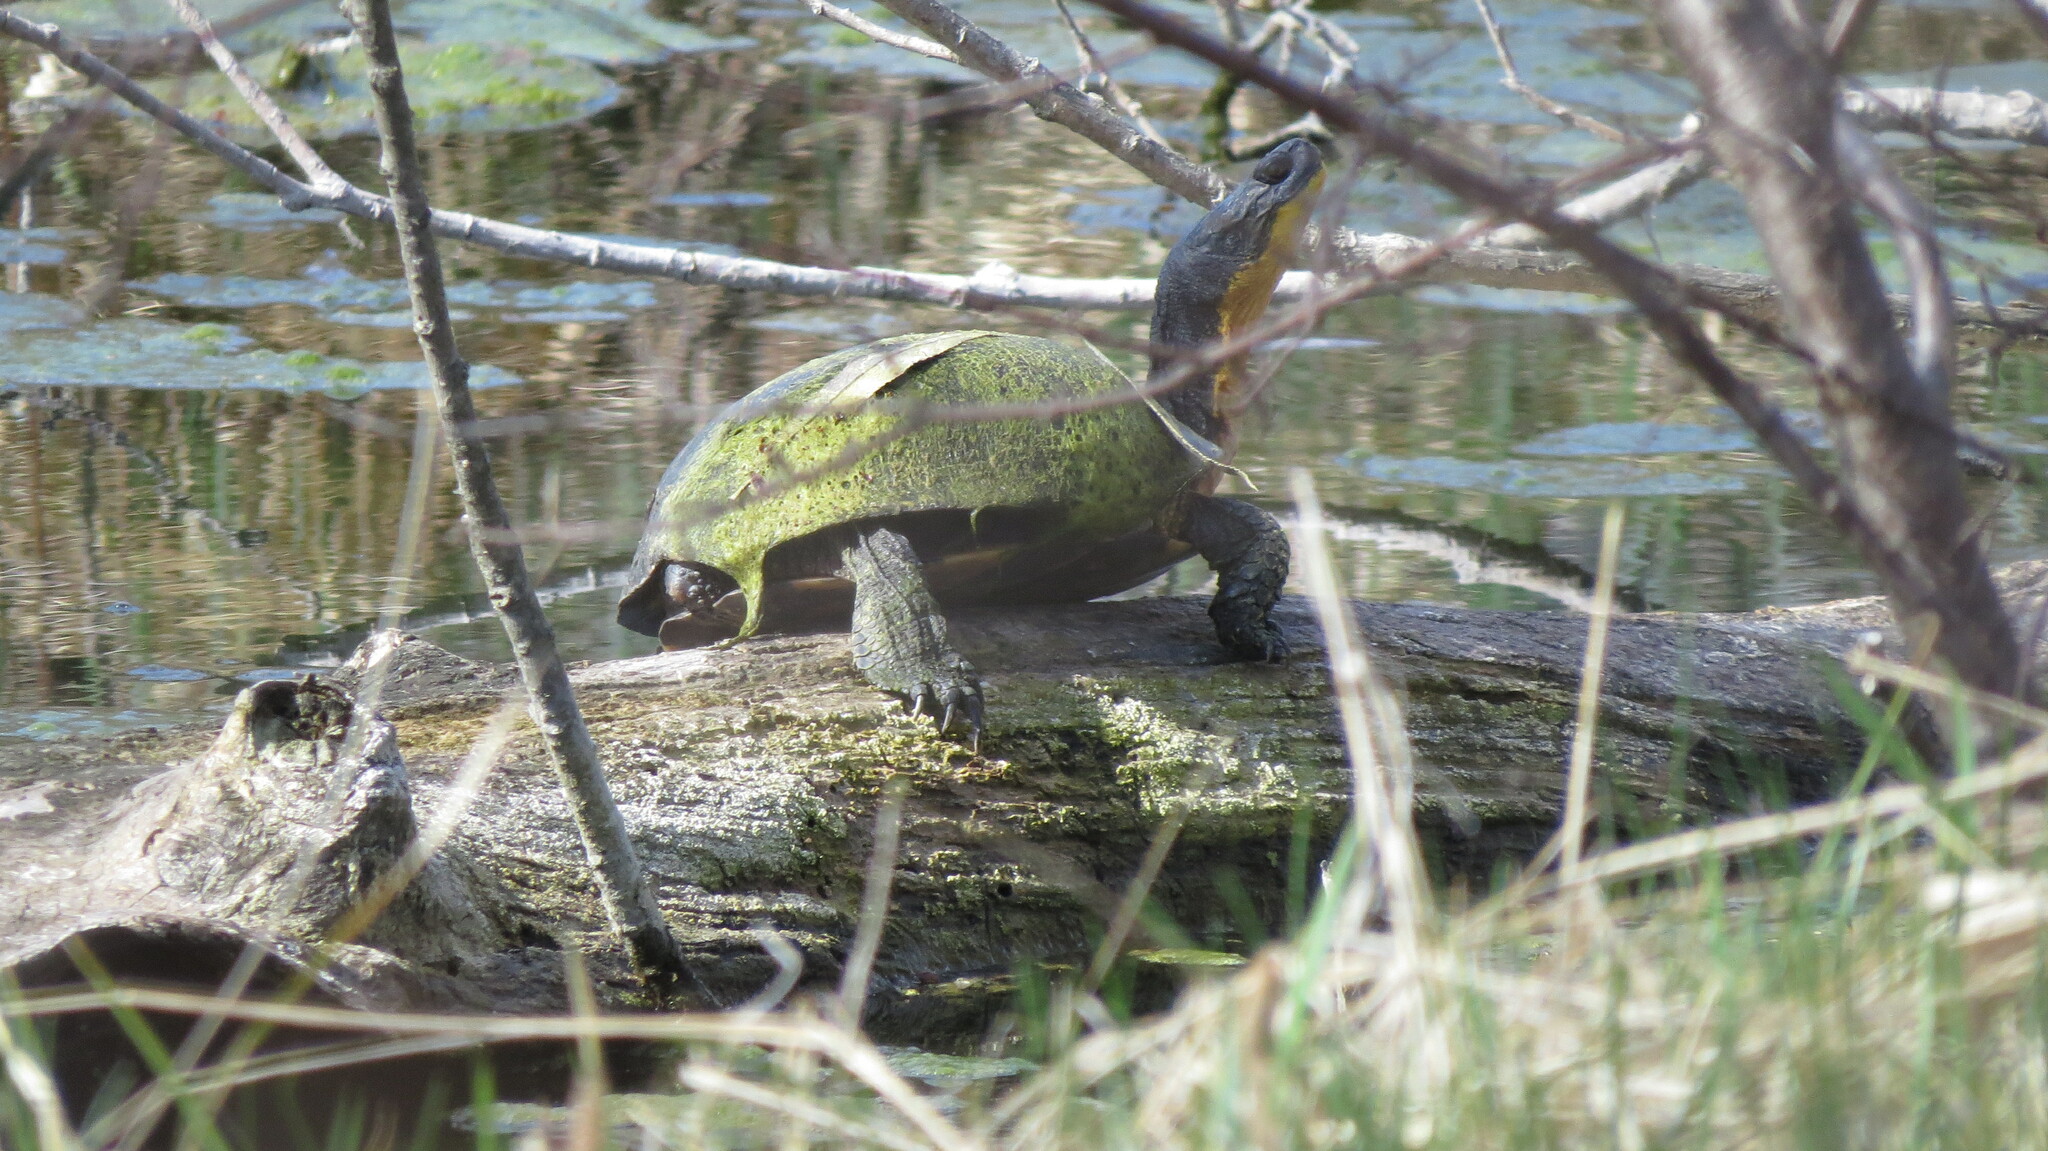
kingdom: Animalia
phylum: Chordata
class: Testudines
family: Emydidae
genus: Emys
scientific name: Emys blandingii
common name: Blanding's turtle
